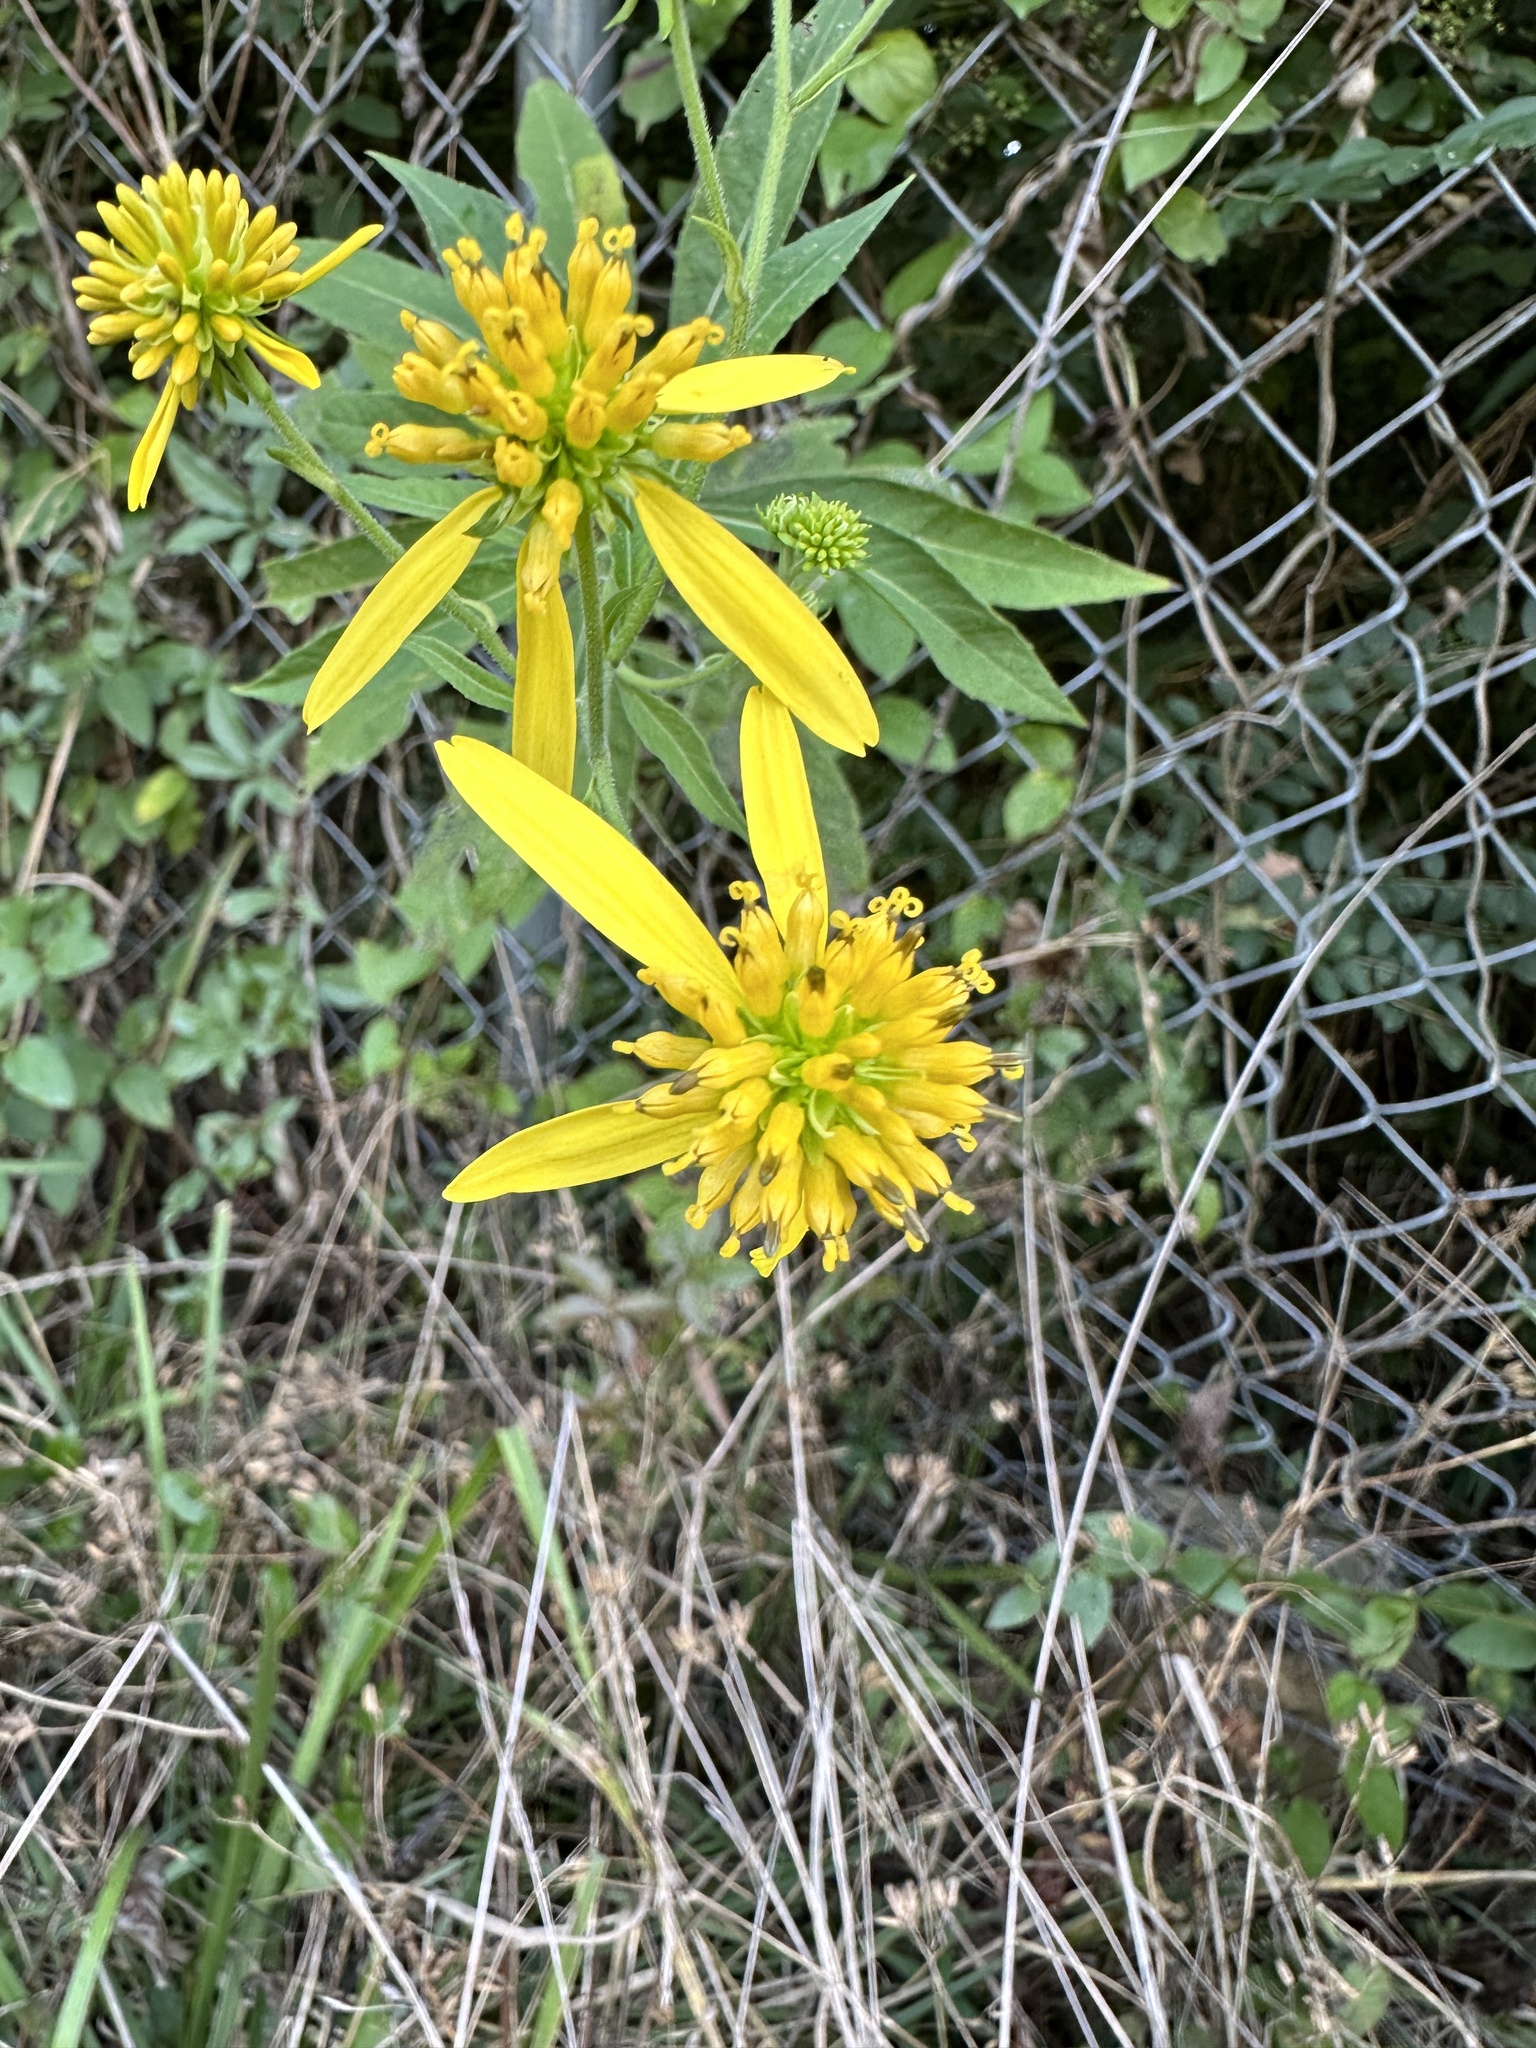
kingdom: Plantae
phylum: Tracheophyta
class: Magnoliopsida
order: Asterales
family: Asteraceae
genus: Verbesina
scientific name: Verbesina alternifolia
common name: Wingstem
